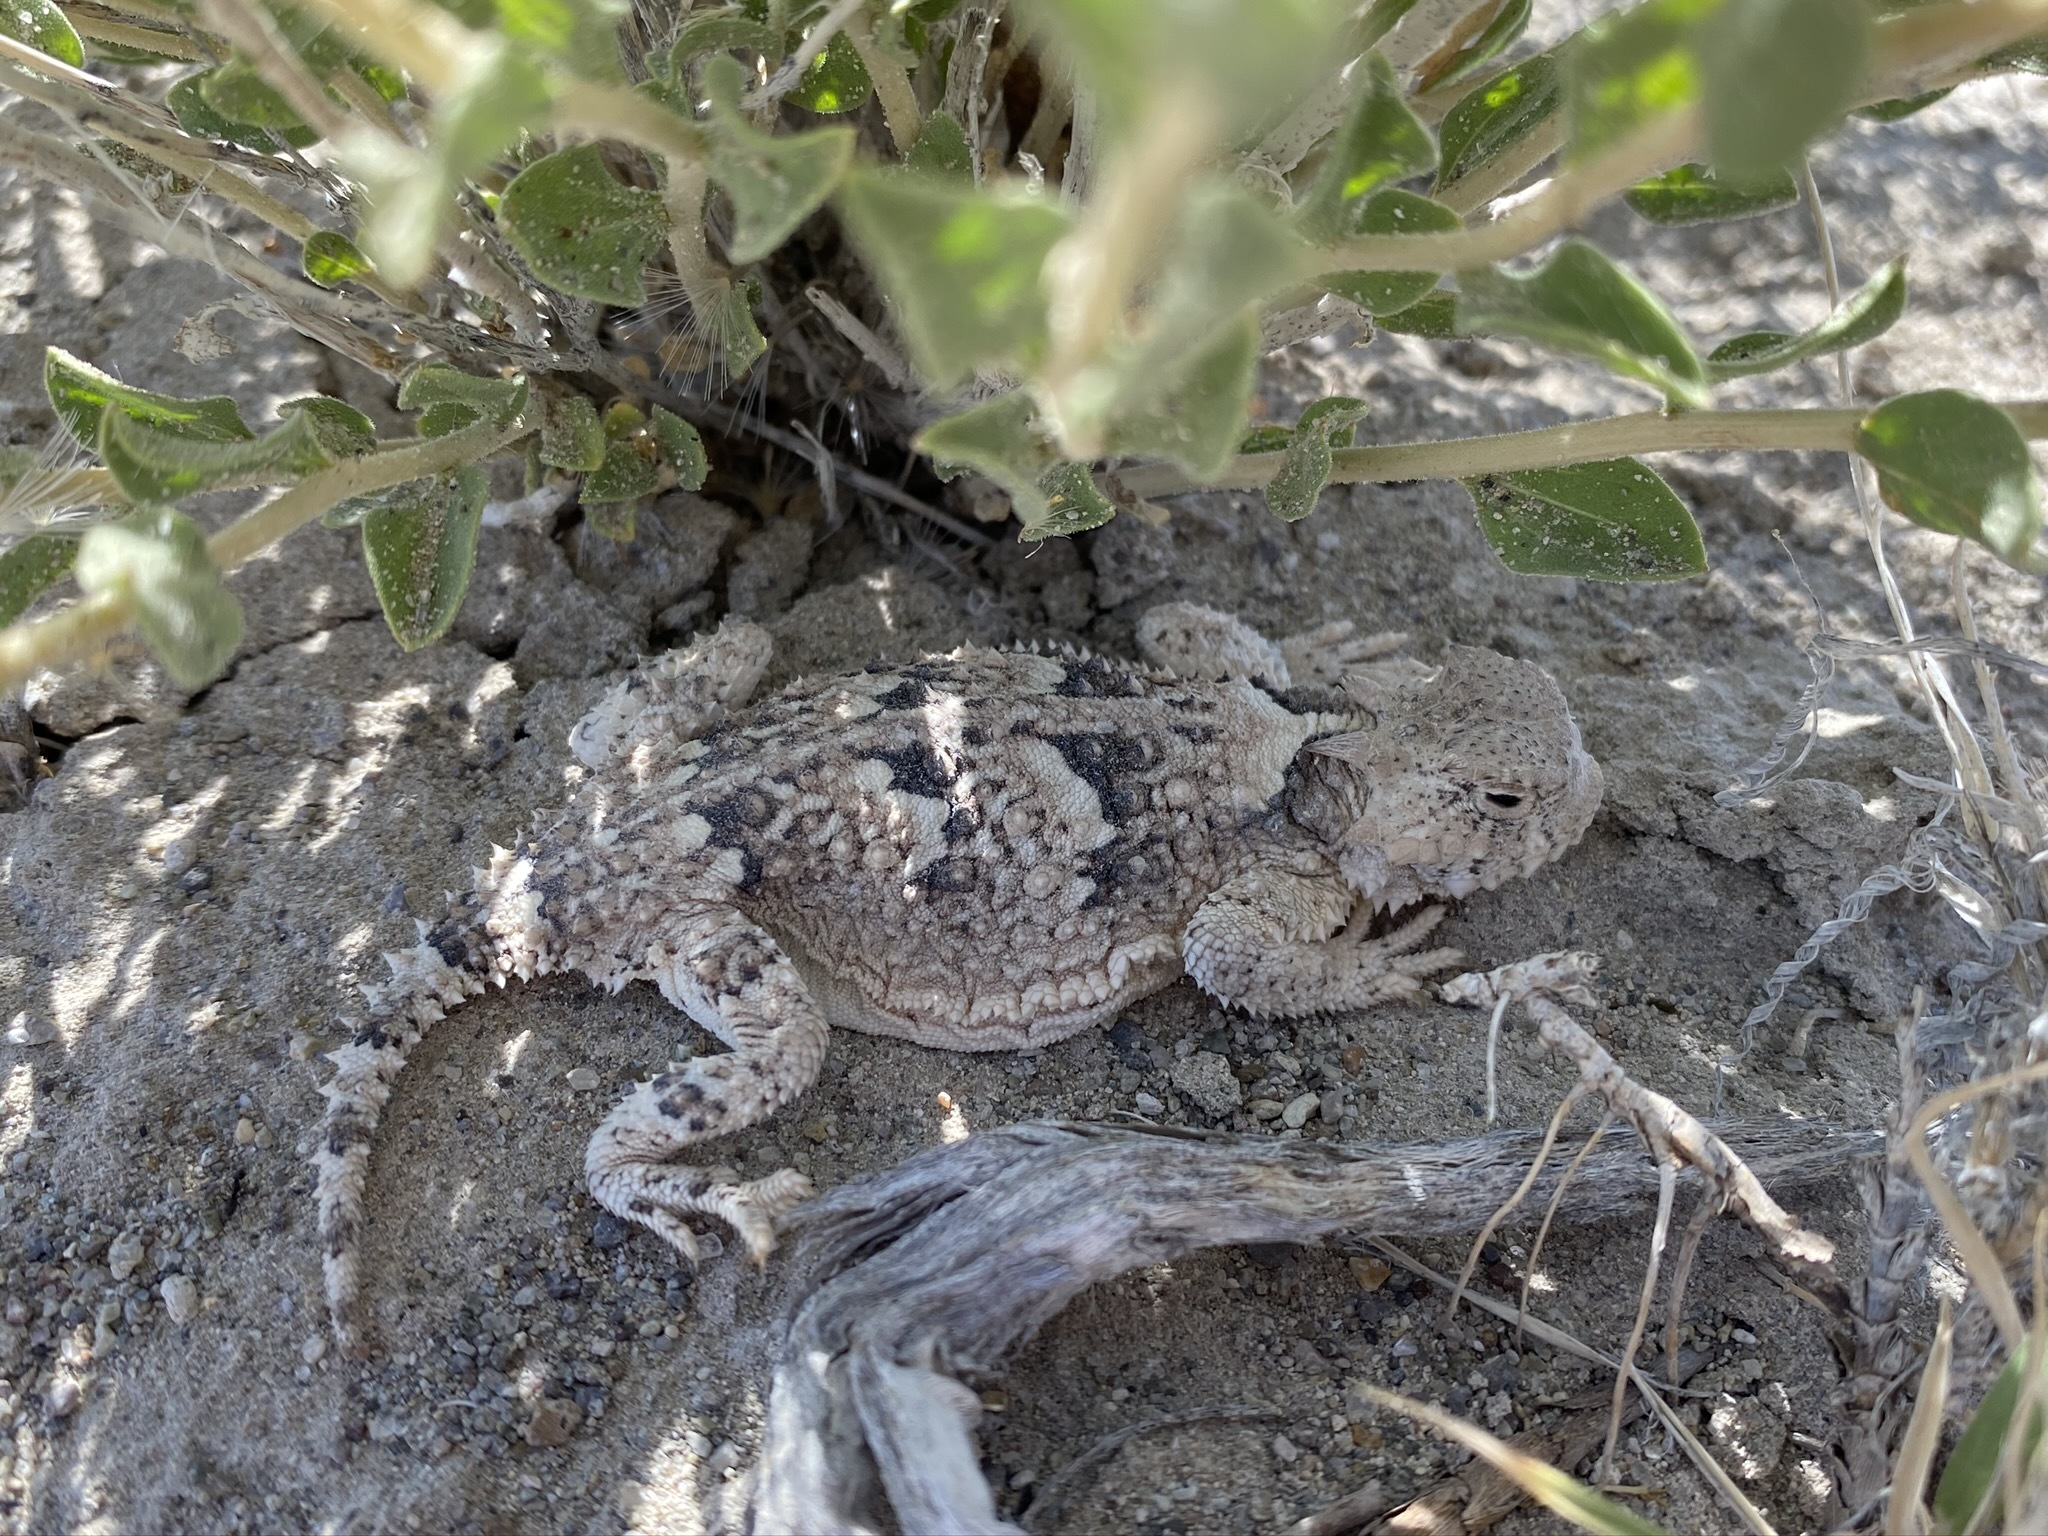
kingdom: Animalia
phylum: Chordata
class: Squamata
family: Phrynosomatidae
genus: Phrynosoma
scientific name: Phrynosoma platyrhinos
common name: Desert horned lizard
